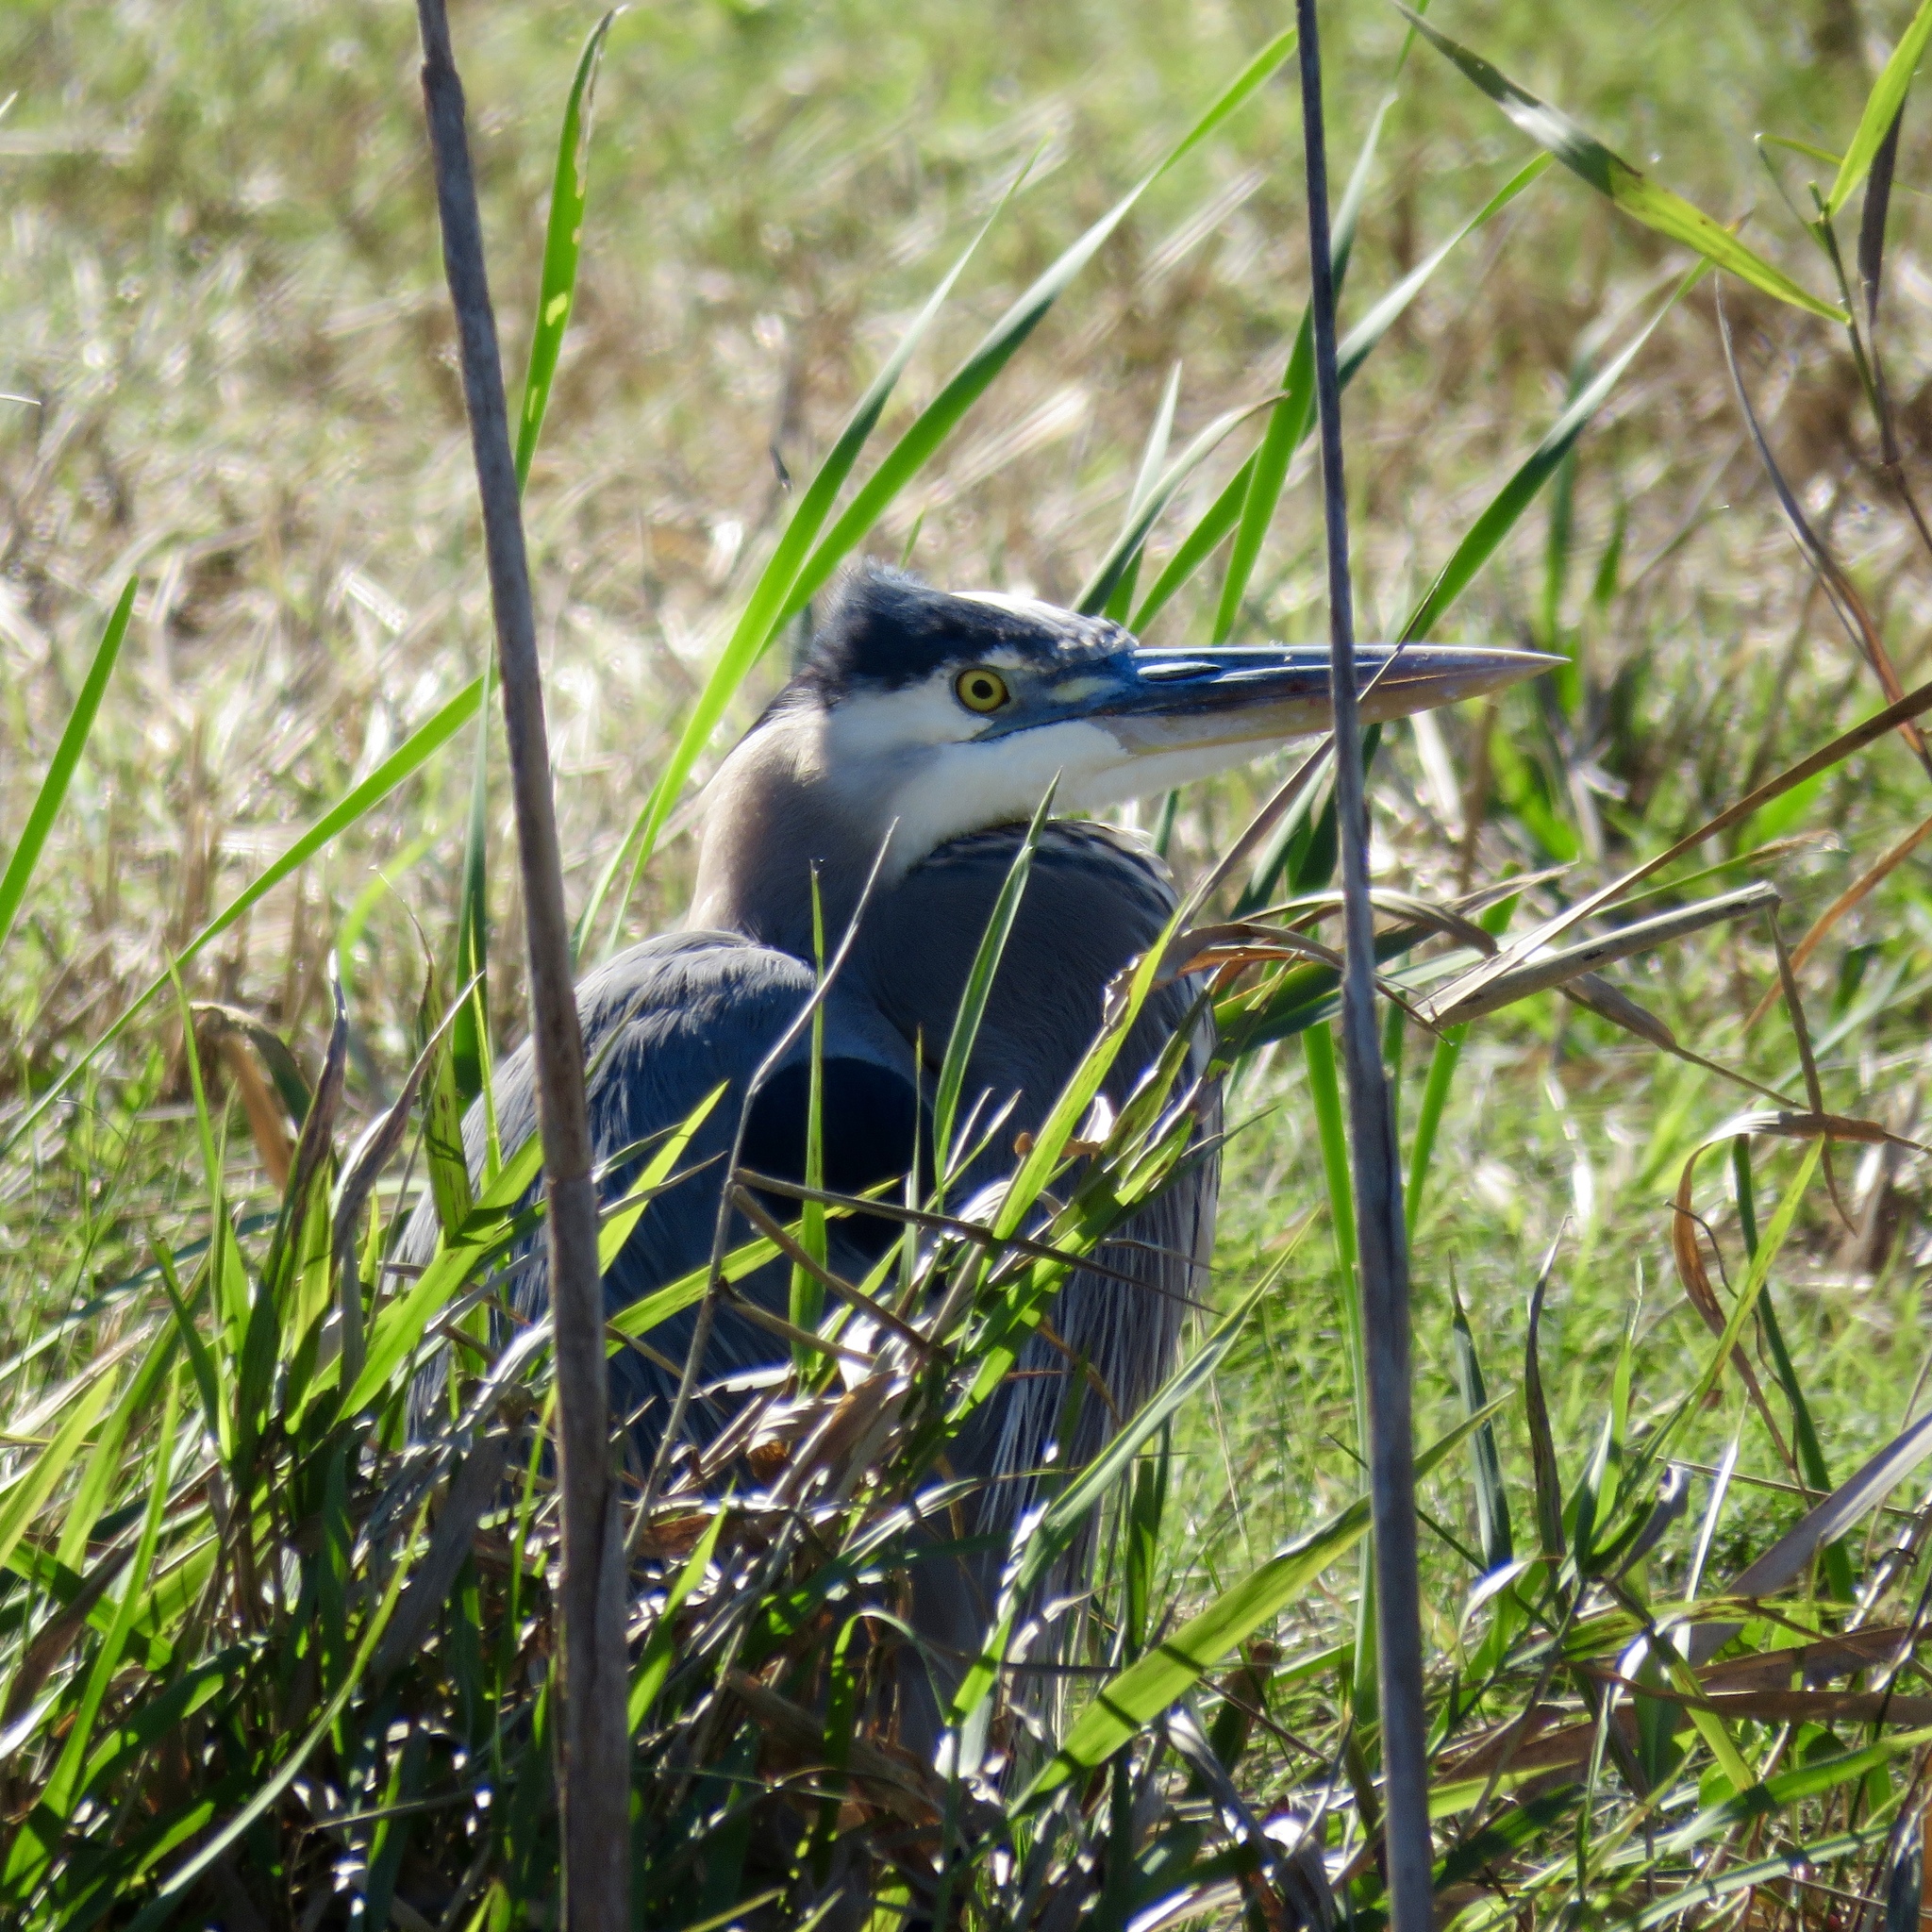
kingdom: Animalia
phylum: Chordata
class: Aves
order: Pelecaniformes
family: Ardeidae
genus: Ardea
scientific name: Ardea herodias
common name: Great blue heron
